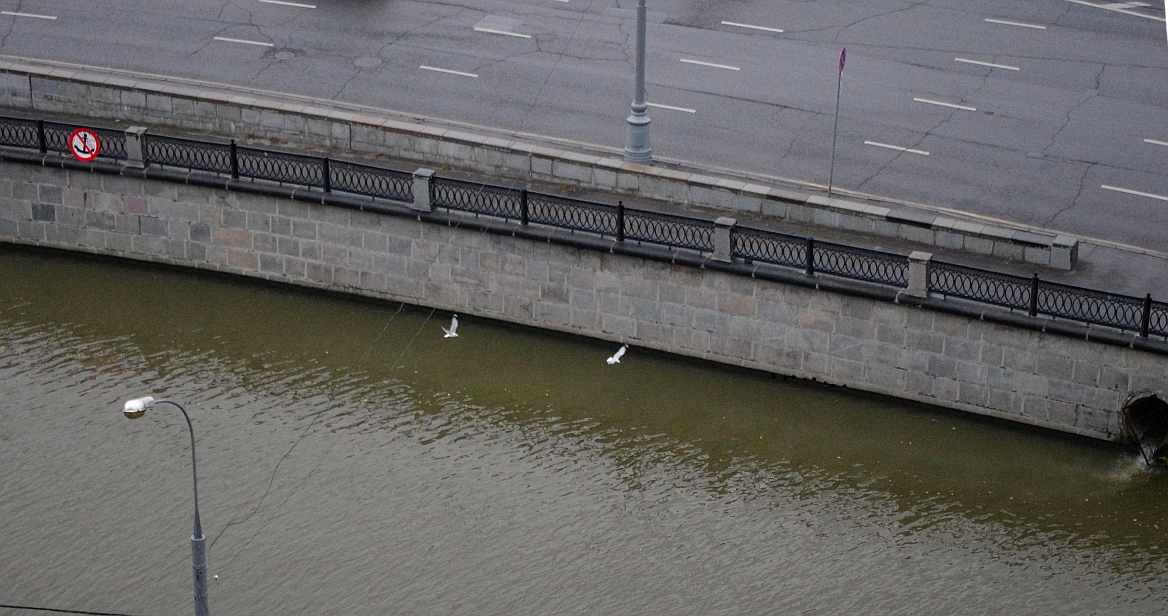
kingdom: Animalia
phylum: Chordata
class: Aves
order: Charadriiformes
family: Laridae
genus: Larus
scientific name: Larus canus
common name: Mew gull
